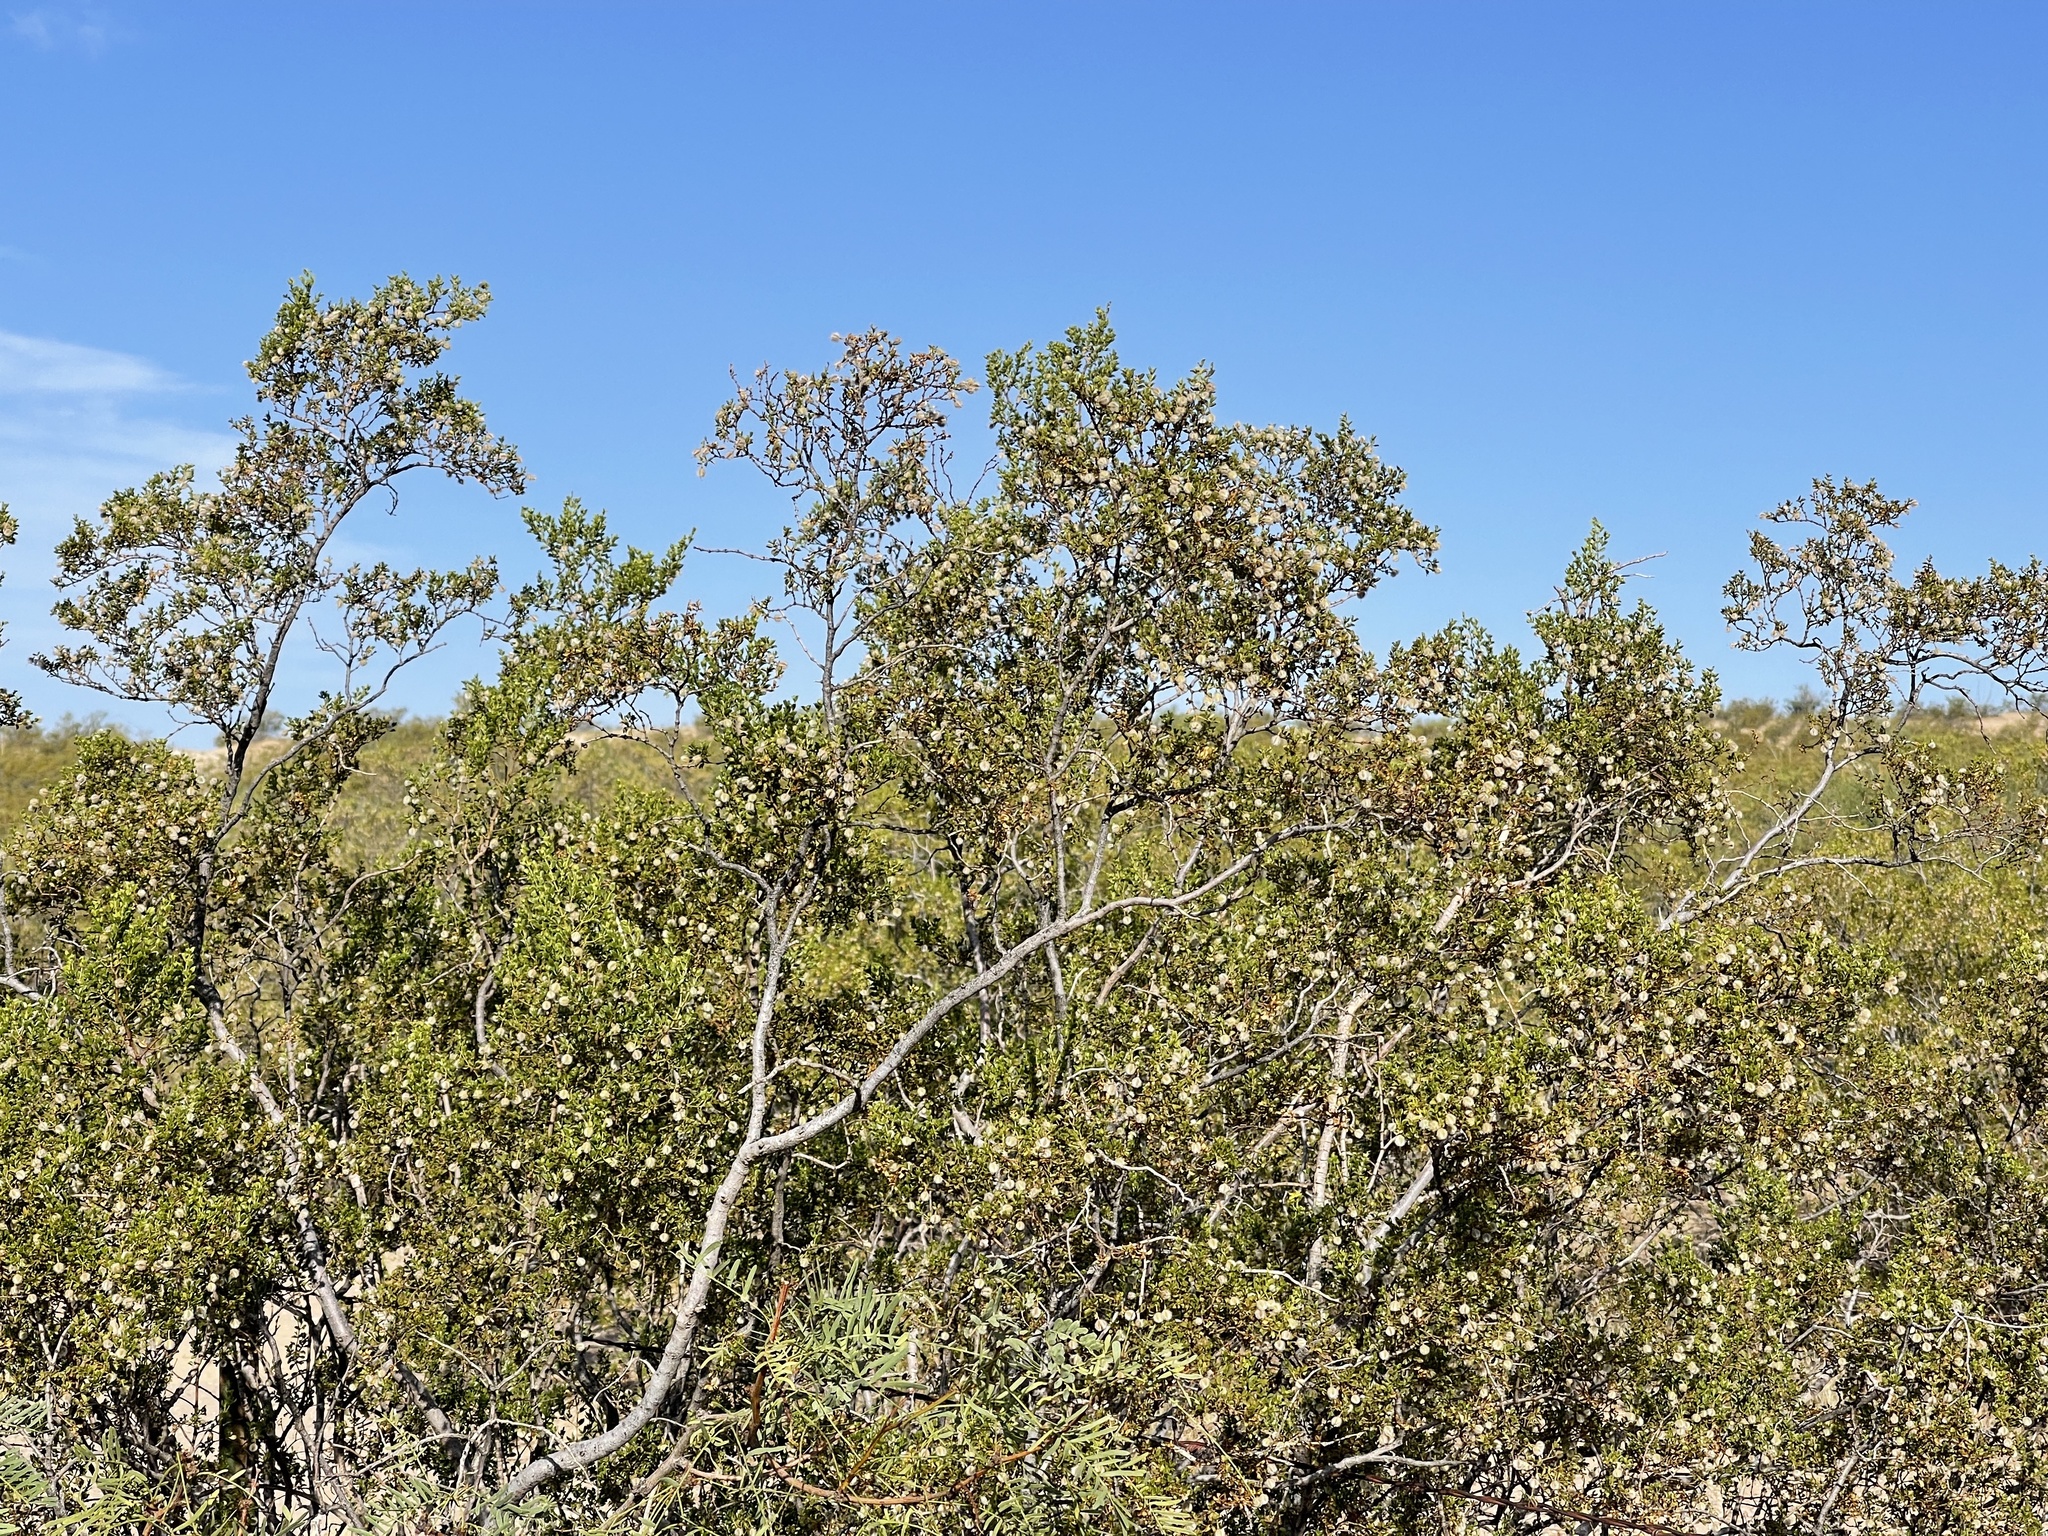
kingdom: Plantae
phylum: Tracheophyta
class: Magnoliopsida
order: Zygophyllales
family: Zygophyllaceae
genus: Larrea
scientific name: Larrea tridentata
